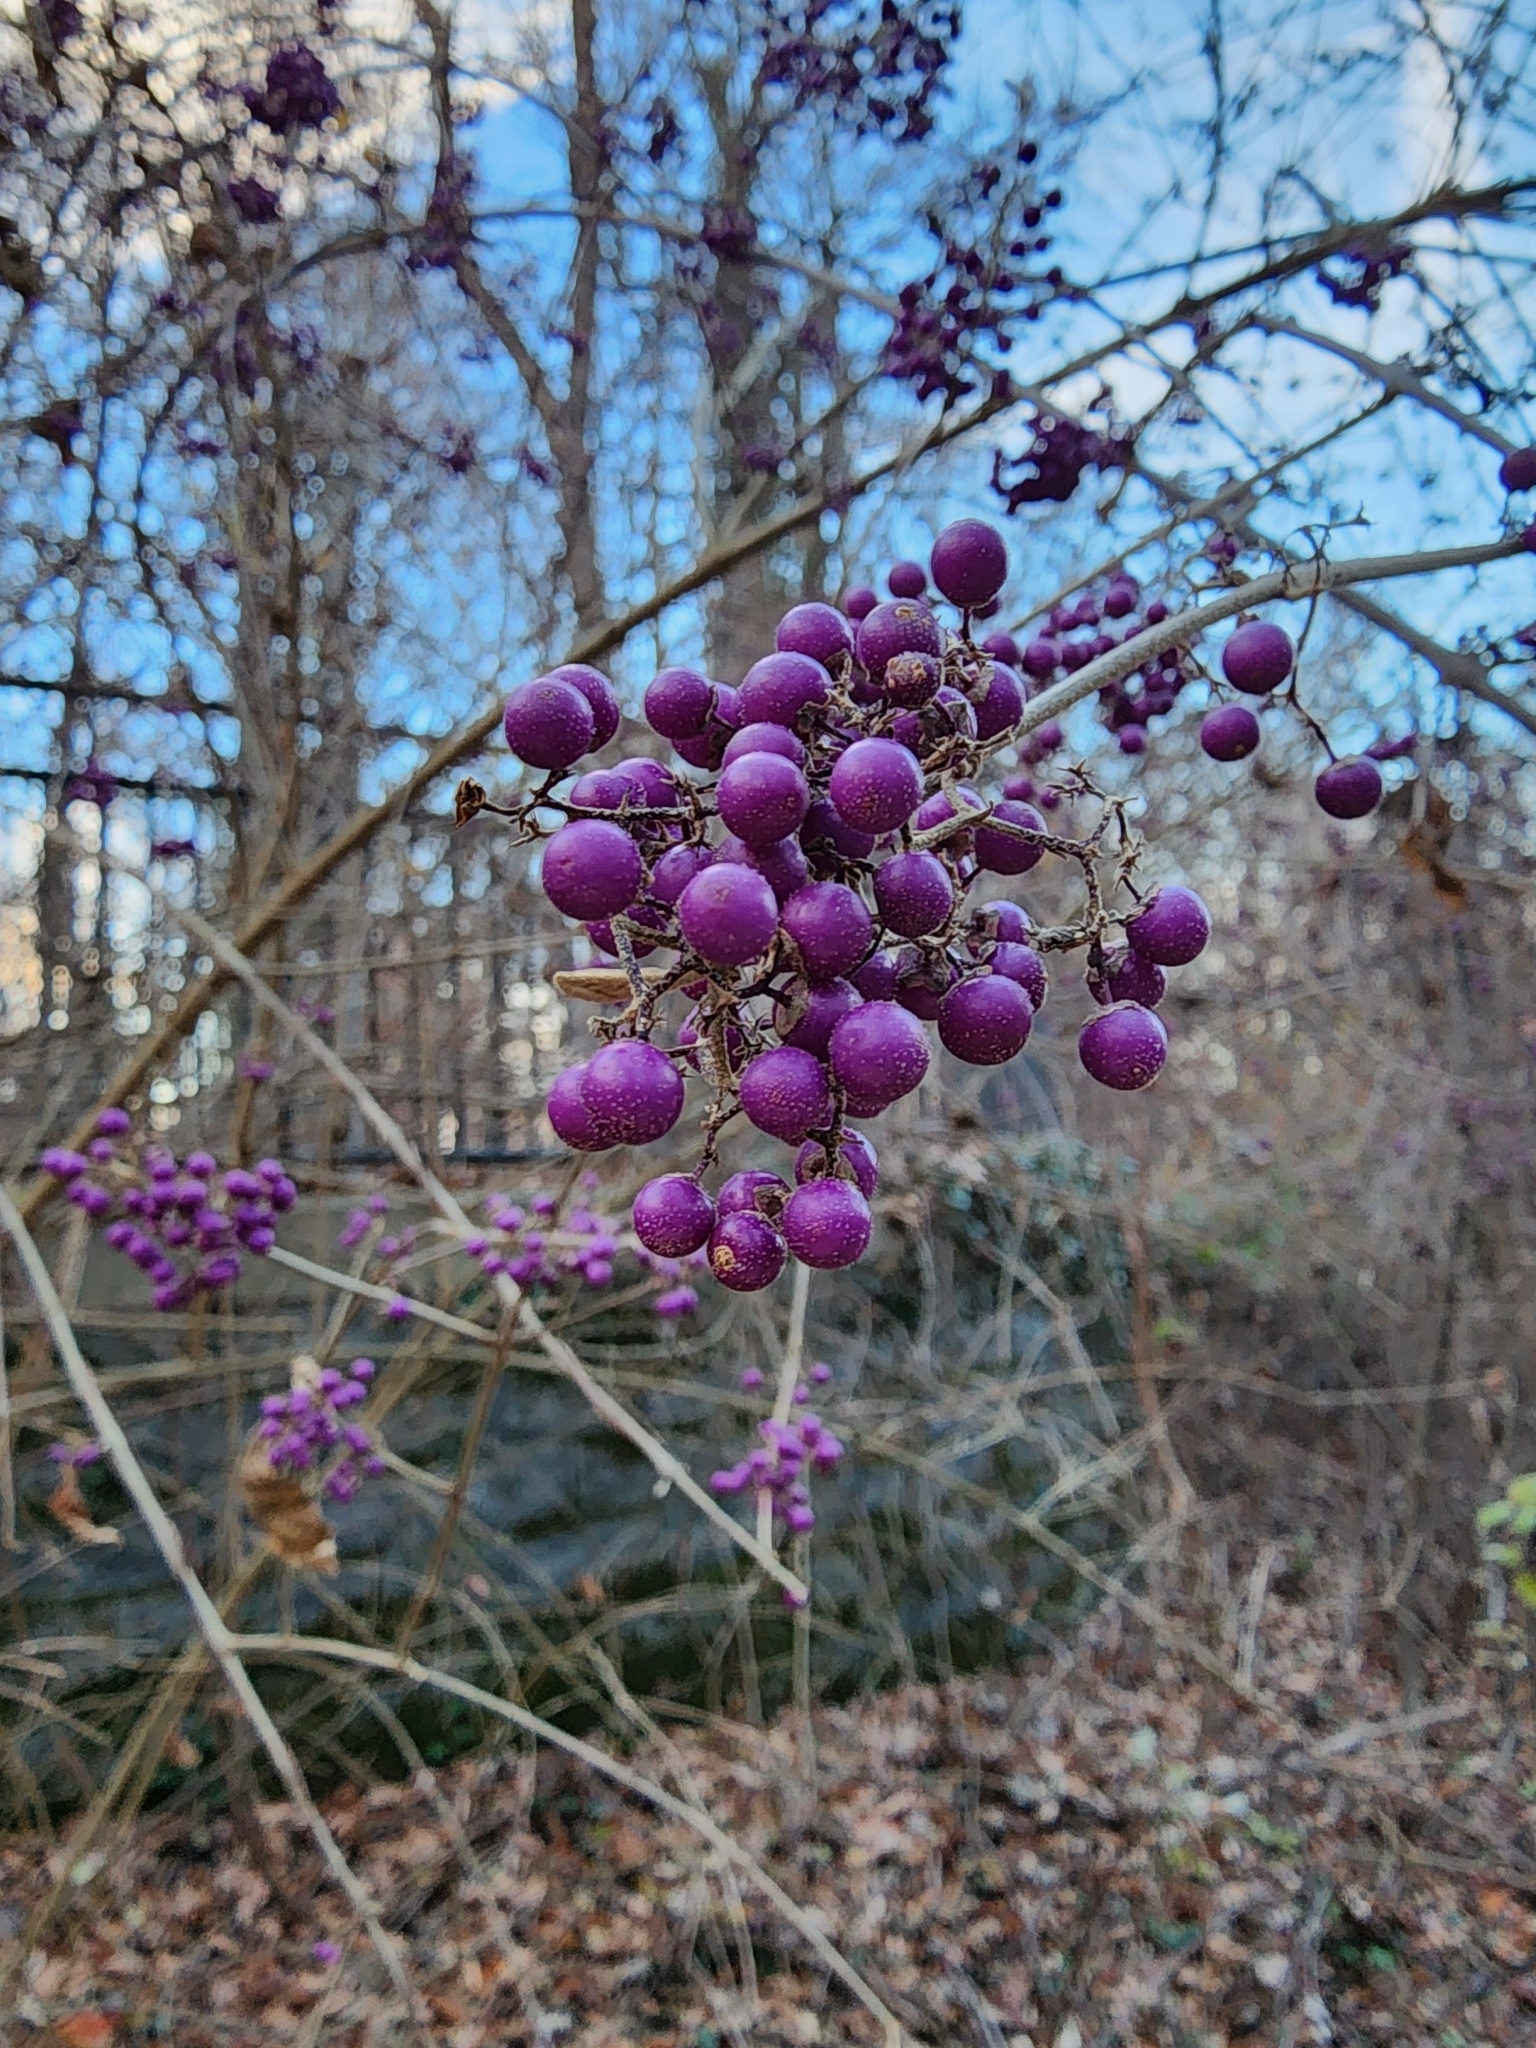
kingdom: Plantae
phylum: Tracheophyta
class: Magnoliopsida
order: Lamiales
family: Lamiaceae
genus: Callicarpa
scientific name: Callicarpa dichotoma
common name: Purple beauty-berry
